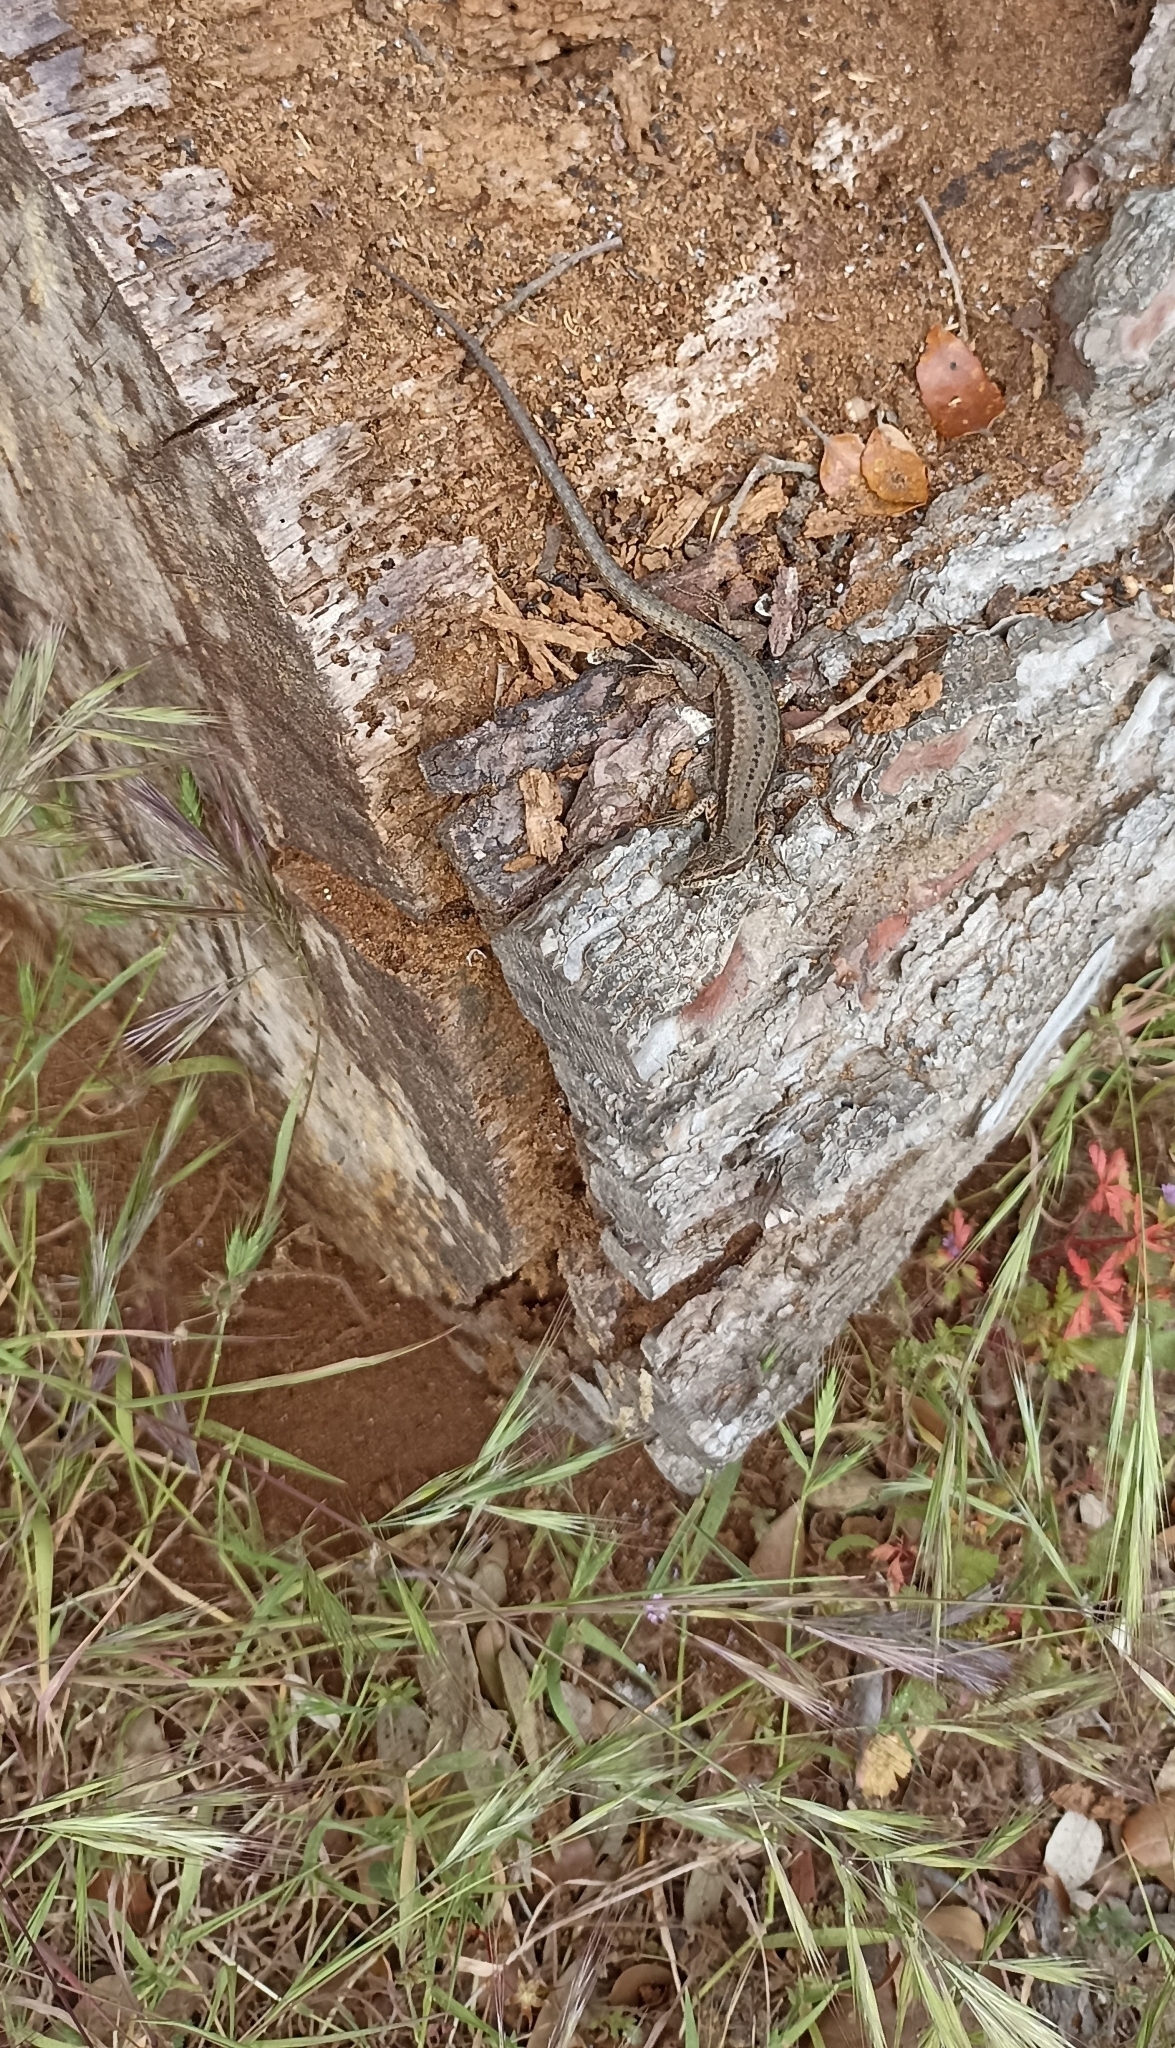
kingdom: Animalia
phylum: Chordata
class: Squamata
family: Lacertidae
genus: Podarcis
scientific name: Podarcis muralis
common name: Common wall lizard
